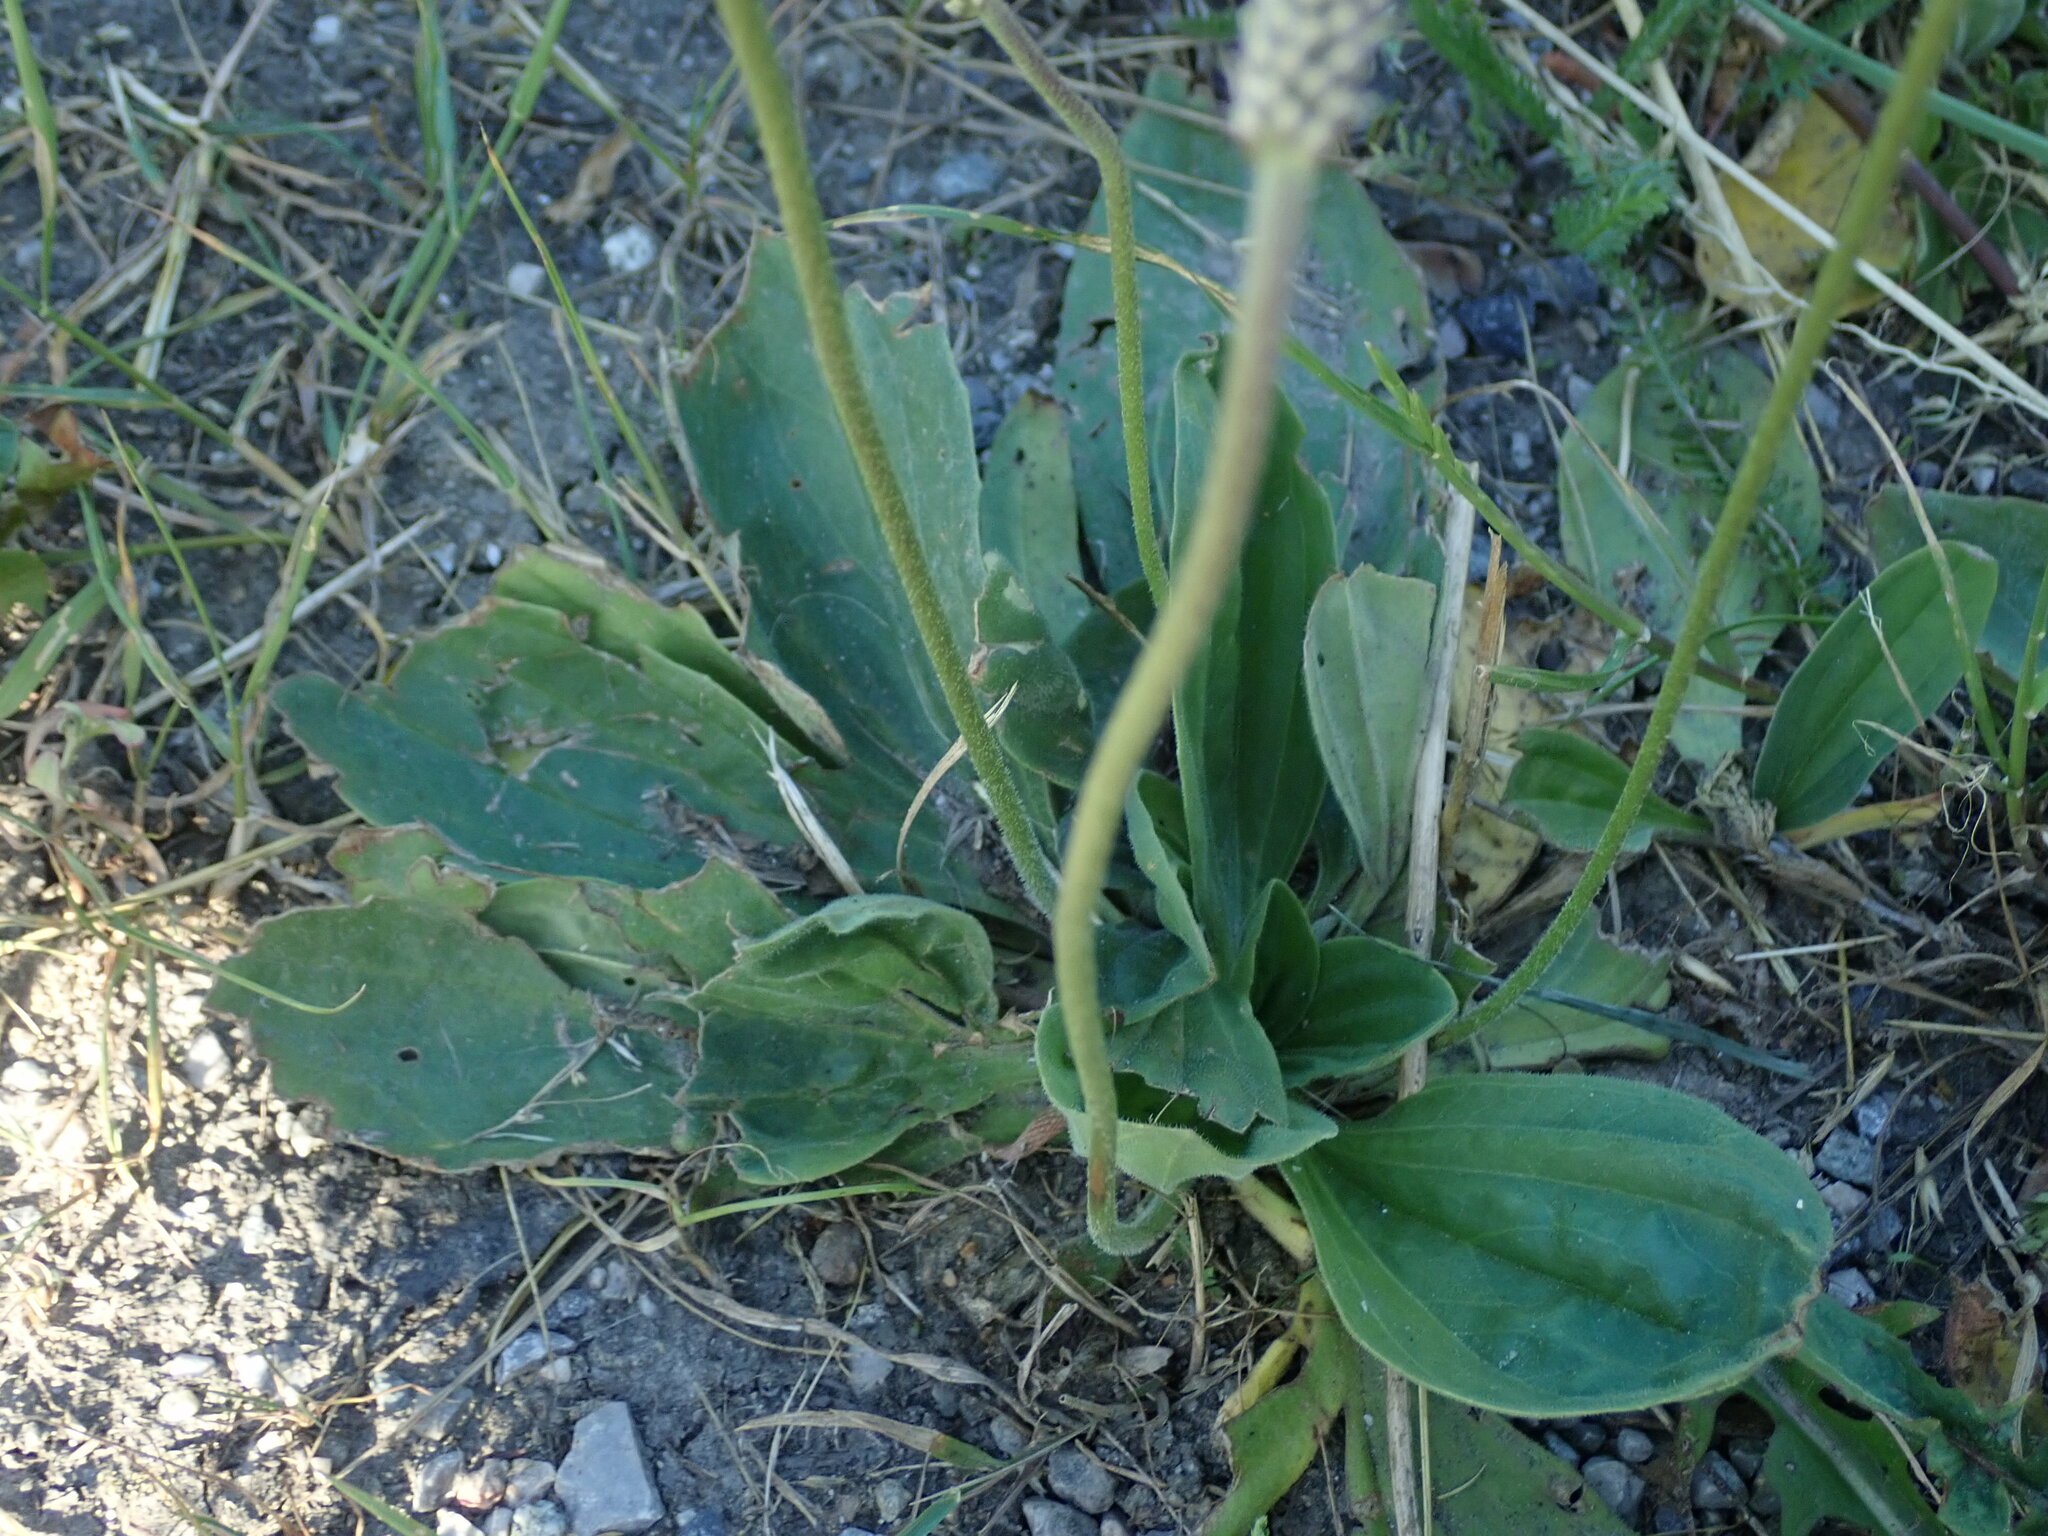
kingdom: Plantae
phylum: Tracheophyta
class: Magnoliopsida
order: Lamiales
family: Plantaginaceae
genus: Plantago
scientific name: Plantago media
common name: Hoary plantain
